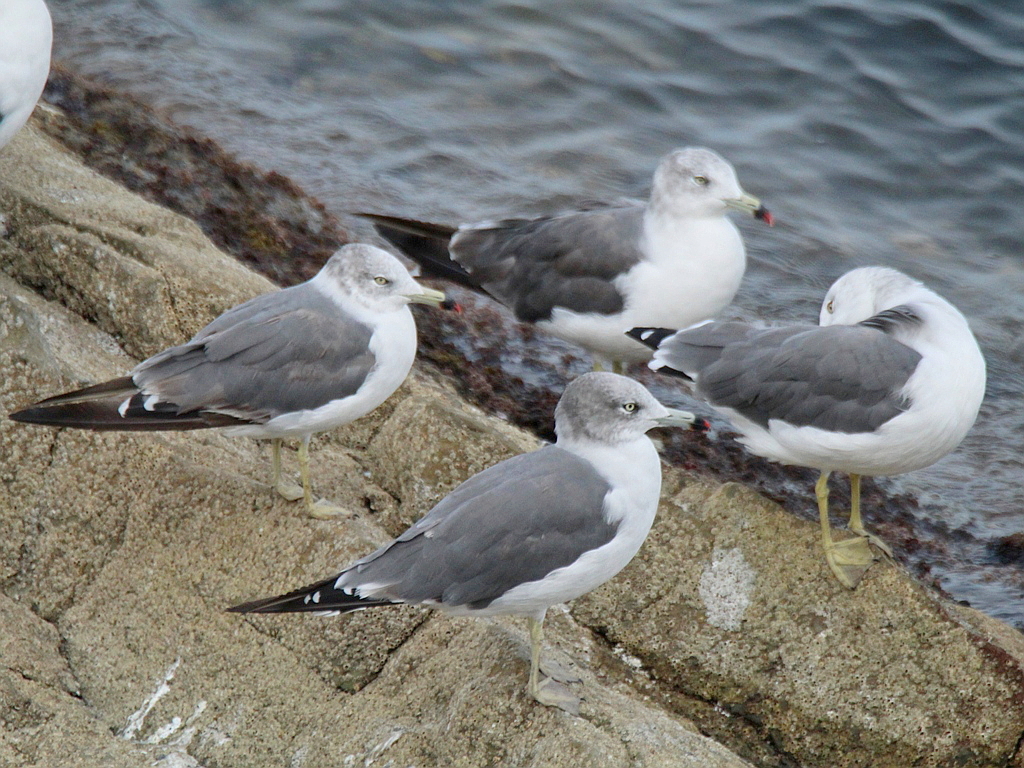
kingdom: Animalia
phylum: Chordata
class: Aves
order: Charadriiformes
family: Laridae
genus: Larus
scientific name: Larus crassirostris
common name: Black-tailed gull
